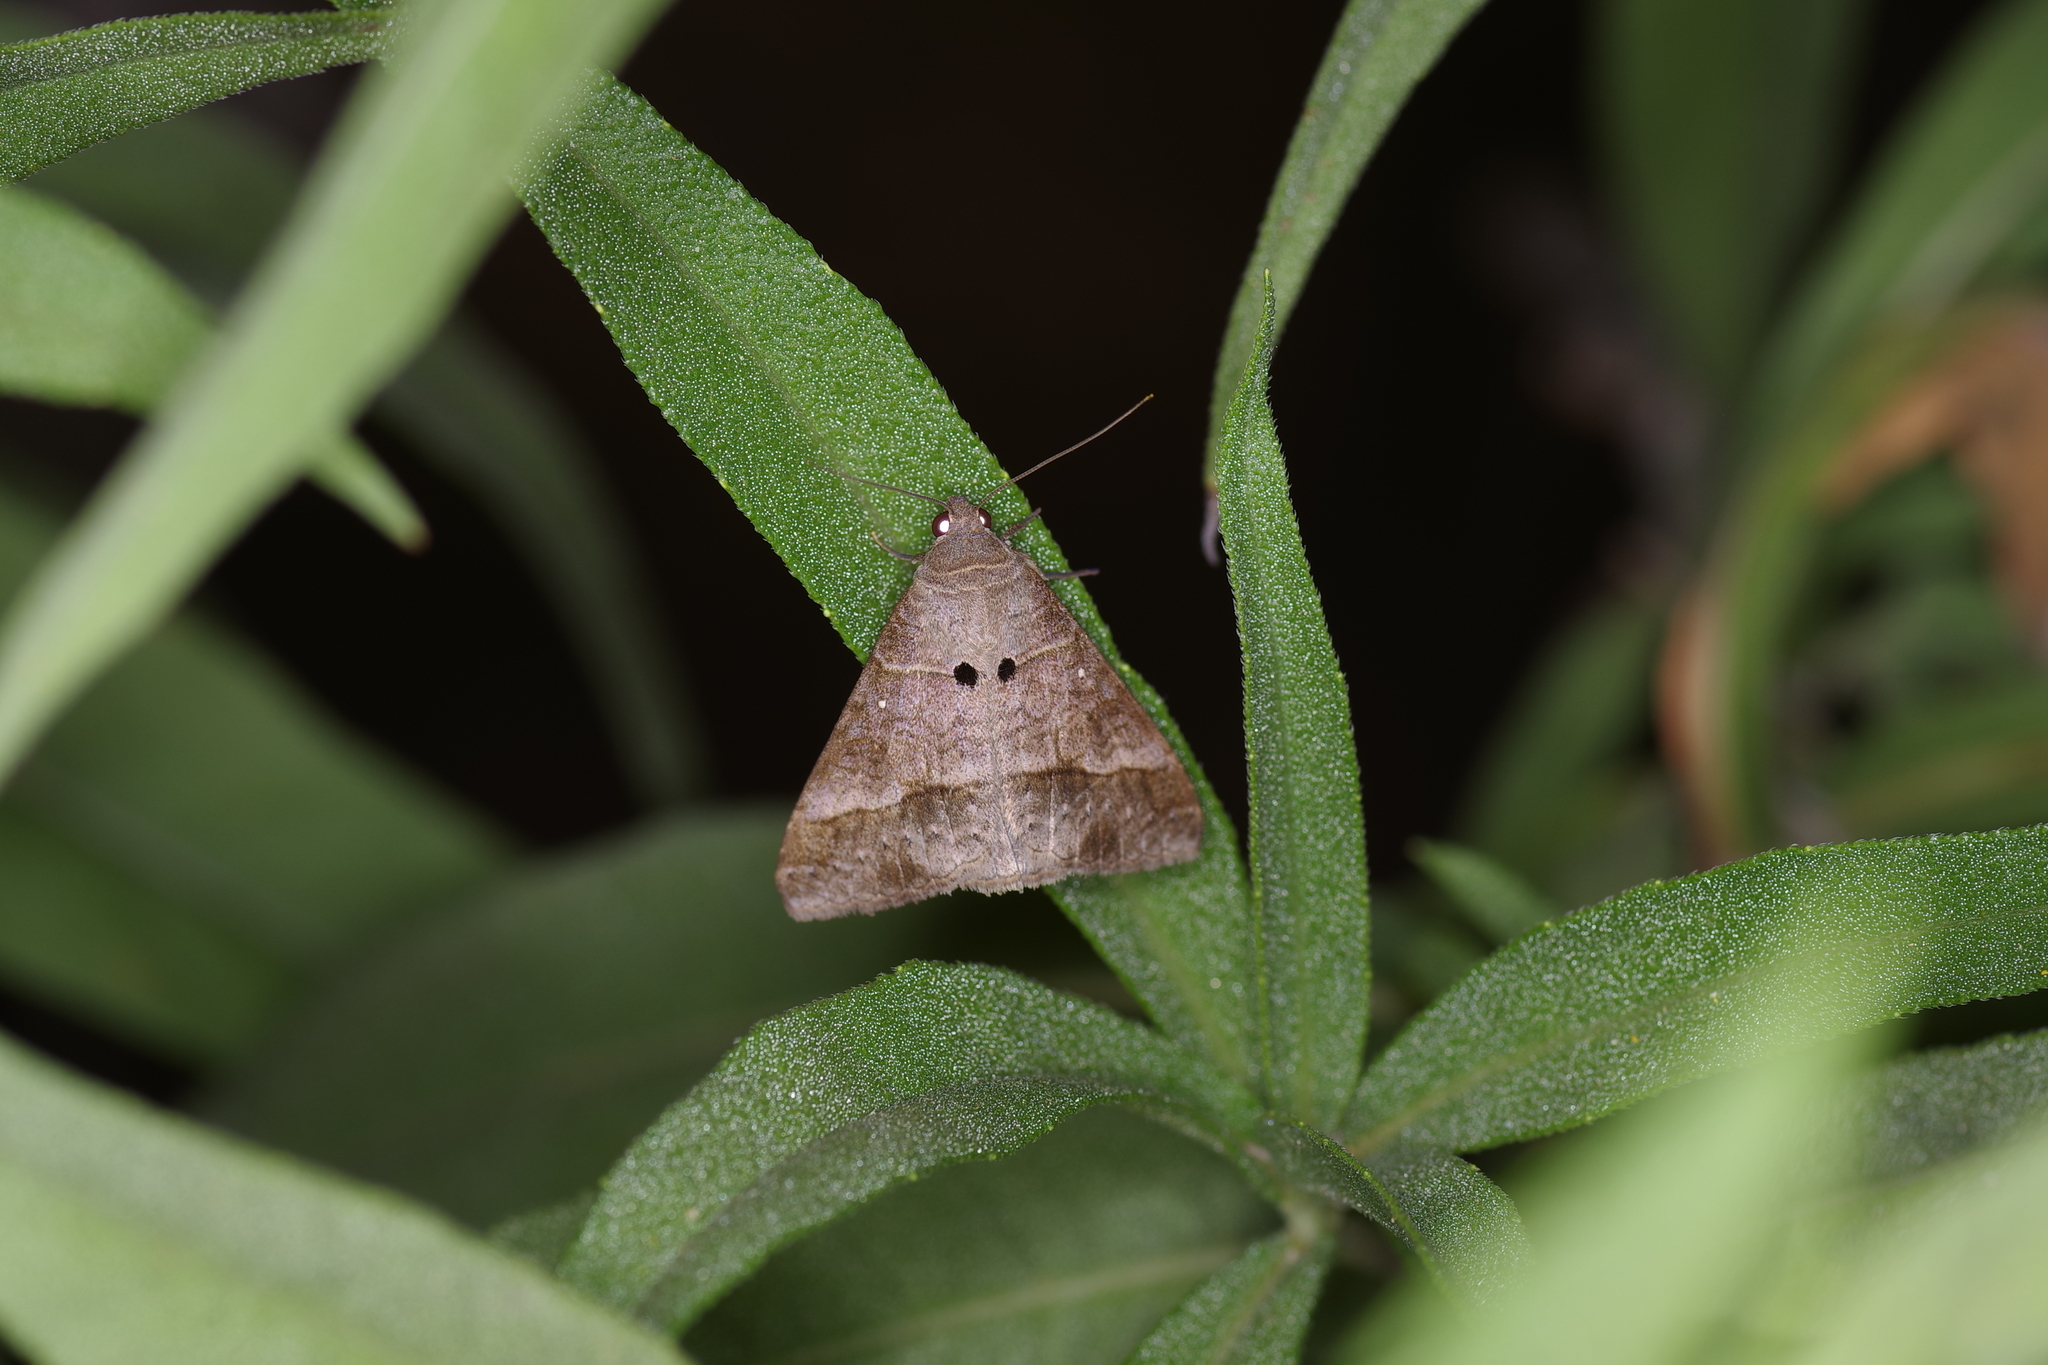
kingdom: Animalia
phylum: Arthropoda
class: Insecta
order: Lepidoptera
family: Erebidae
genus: Mocis
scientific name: Mocis latipes
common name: Striped grass looper
